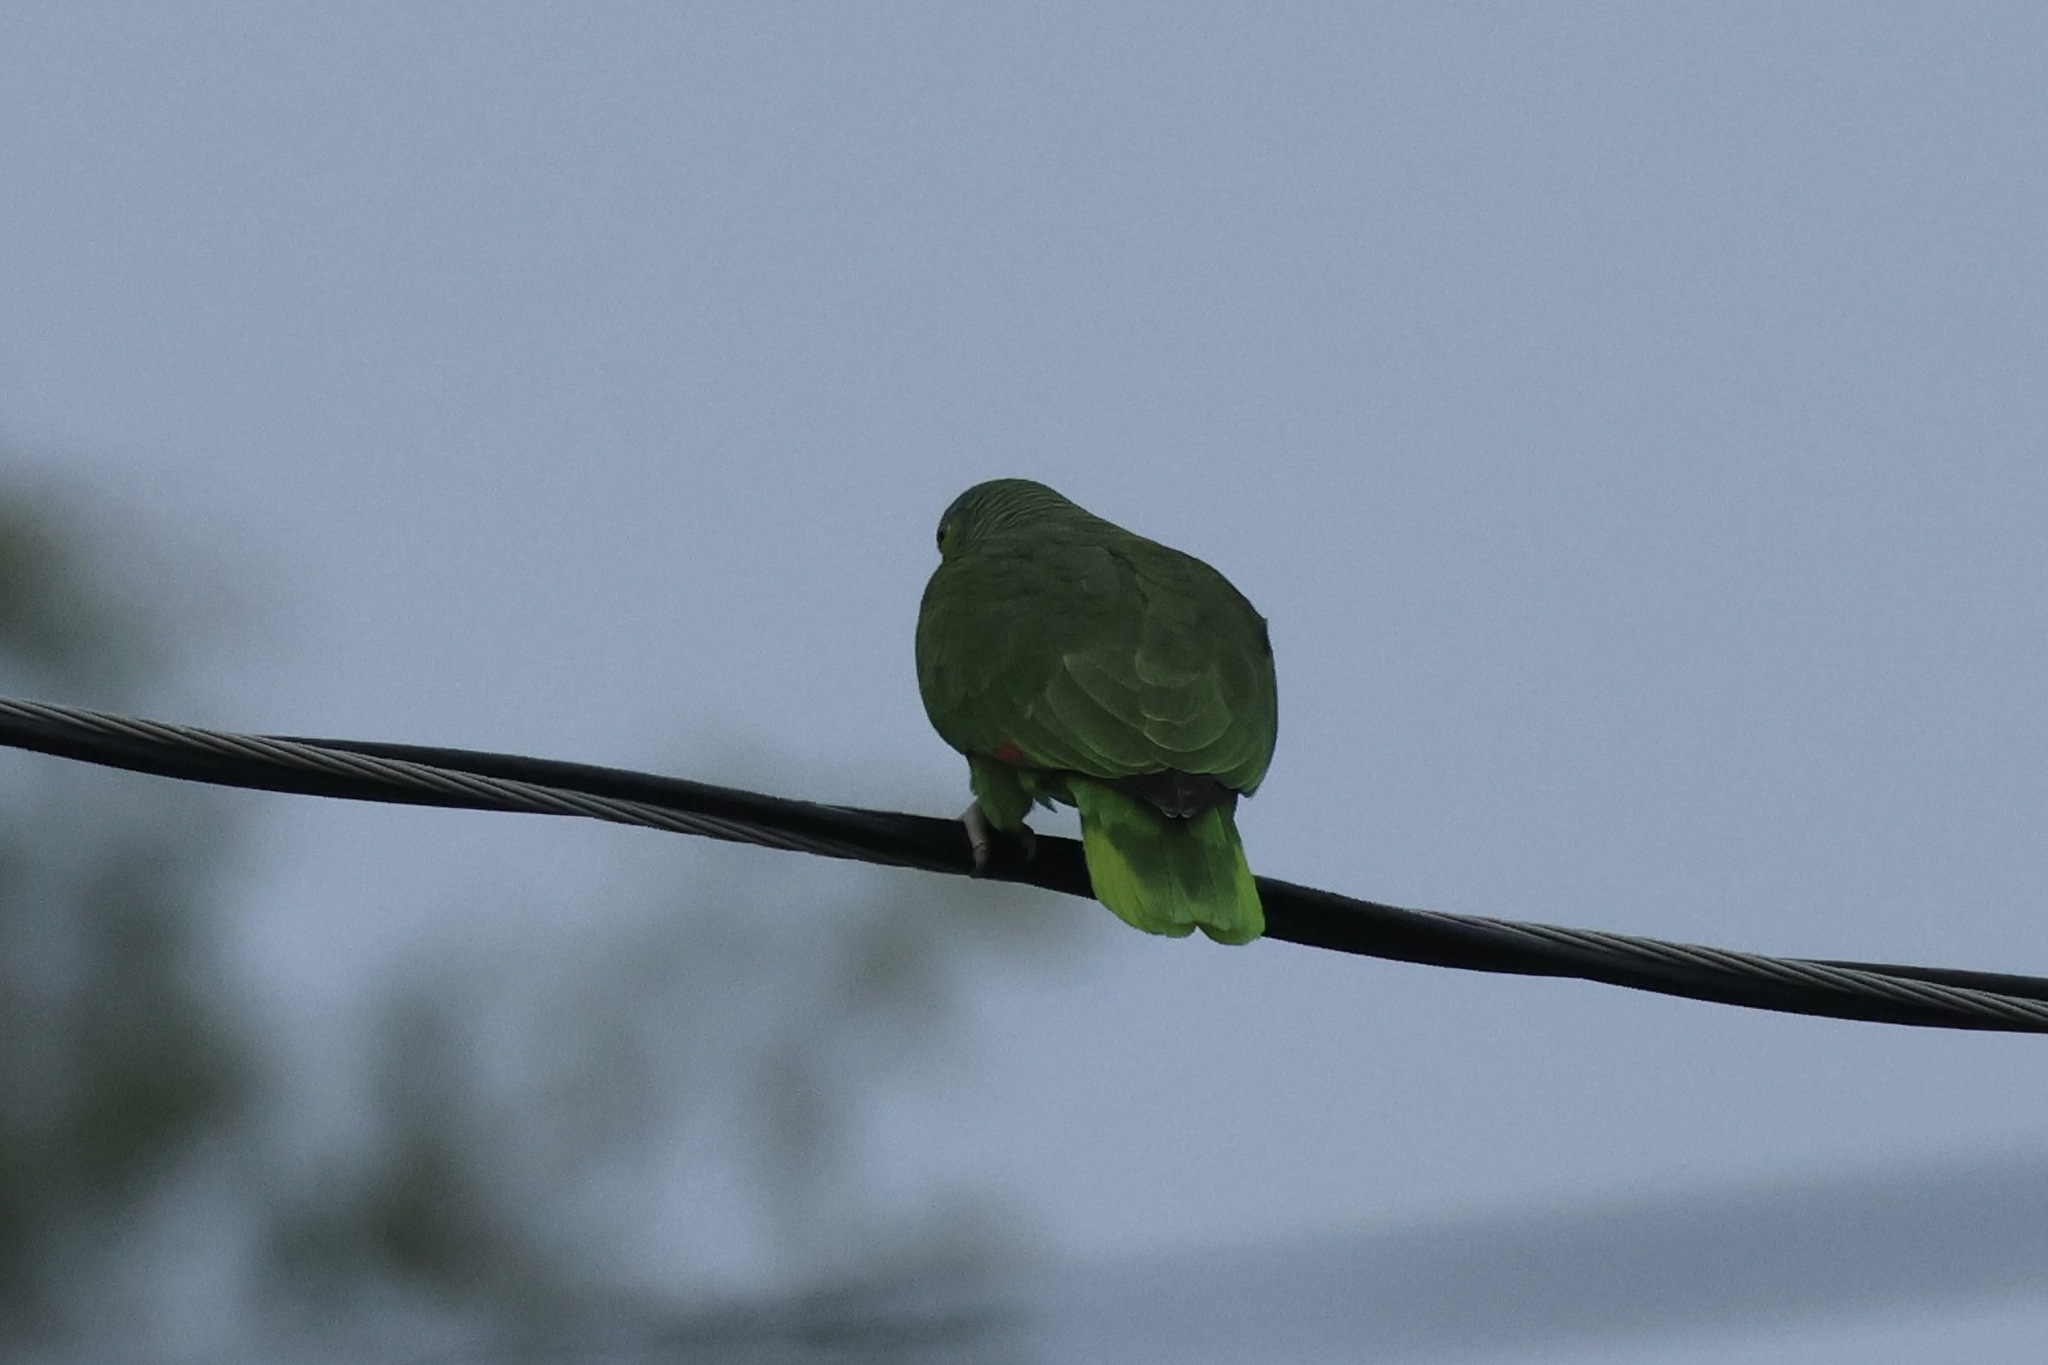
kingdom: Animalia
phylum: Chordata
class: Aves
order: Psittaciformes
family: Psittacidae
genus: Amazona
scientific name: Amazona viridigenalis
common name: Red-crowned amazon
